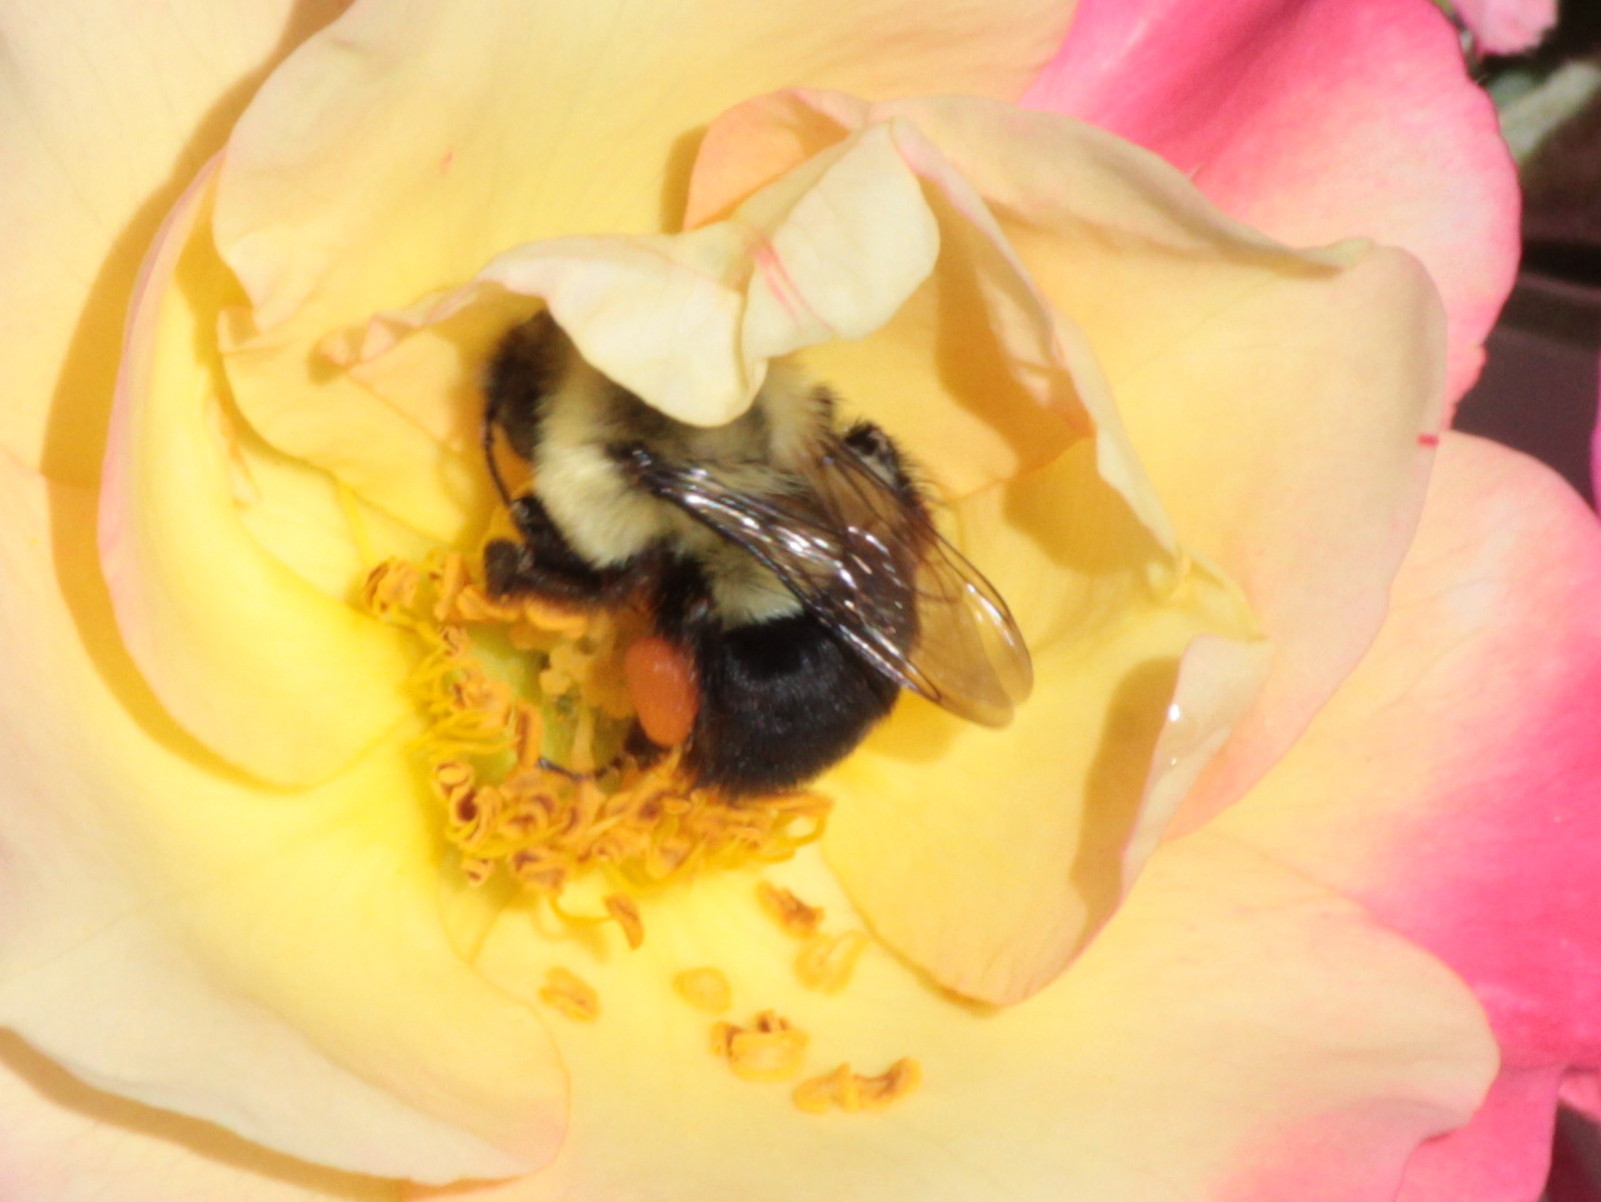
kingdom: Animalia
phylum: Arthropoda
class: Insecta
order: Hymenoptera
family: Apidae
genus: Bombus
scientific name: Bombus impatiens
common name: Common eastern bumble bee
